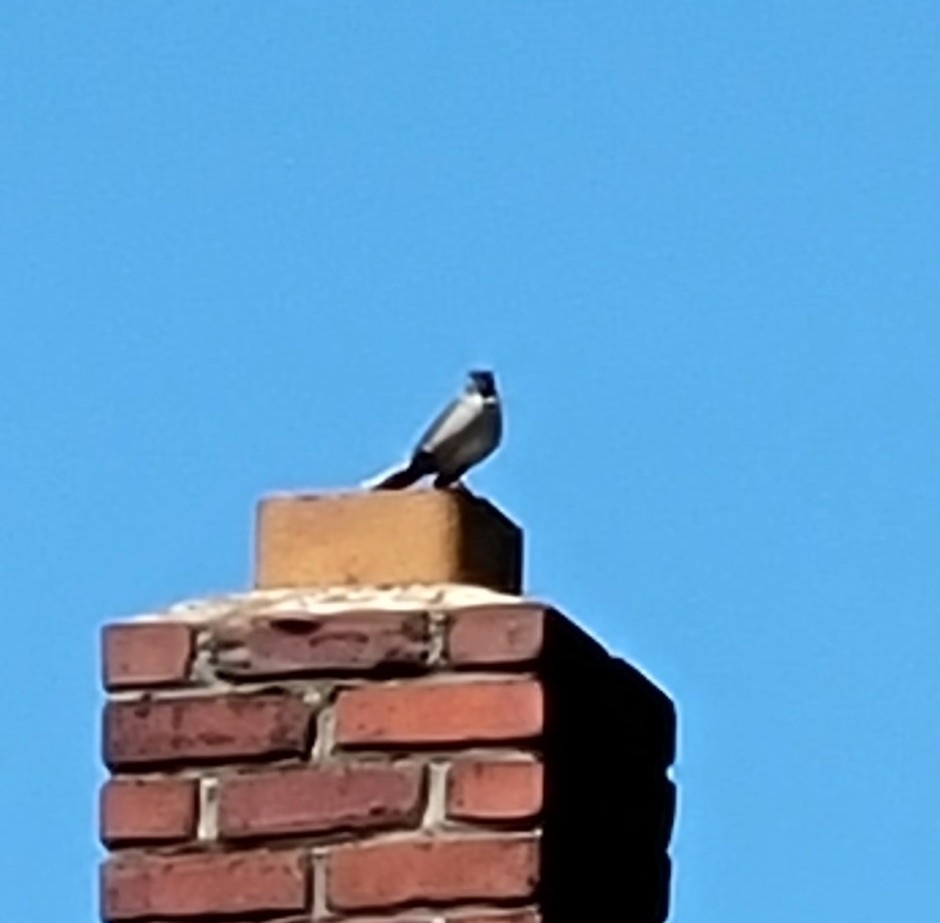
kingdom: Animalia
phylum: Chordata
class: Aves
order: Passeriformes
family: Mimidae
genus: Mimus
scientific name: Mimus polyglottos
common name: Northern mockingbird
